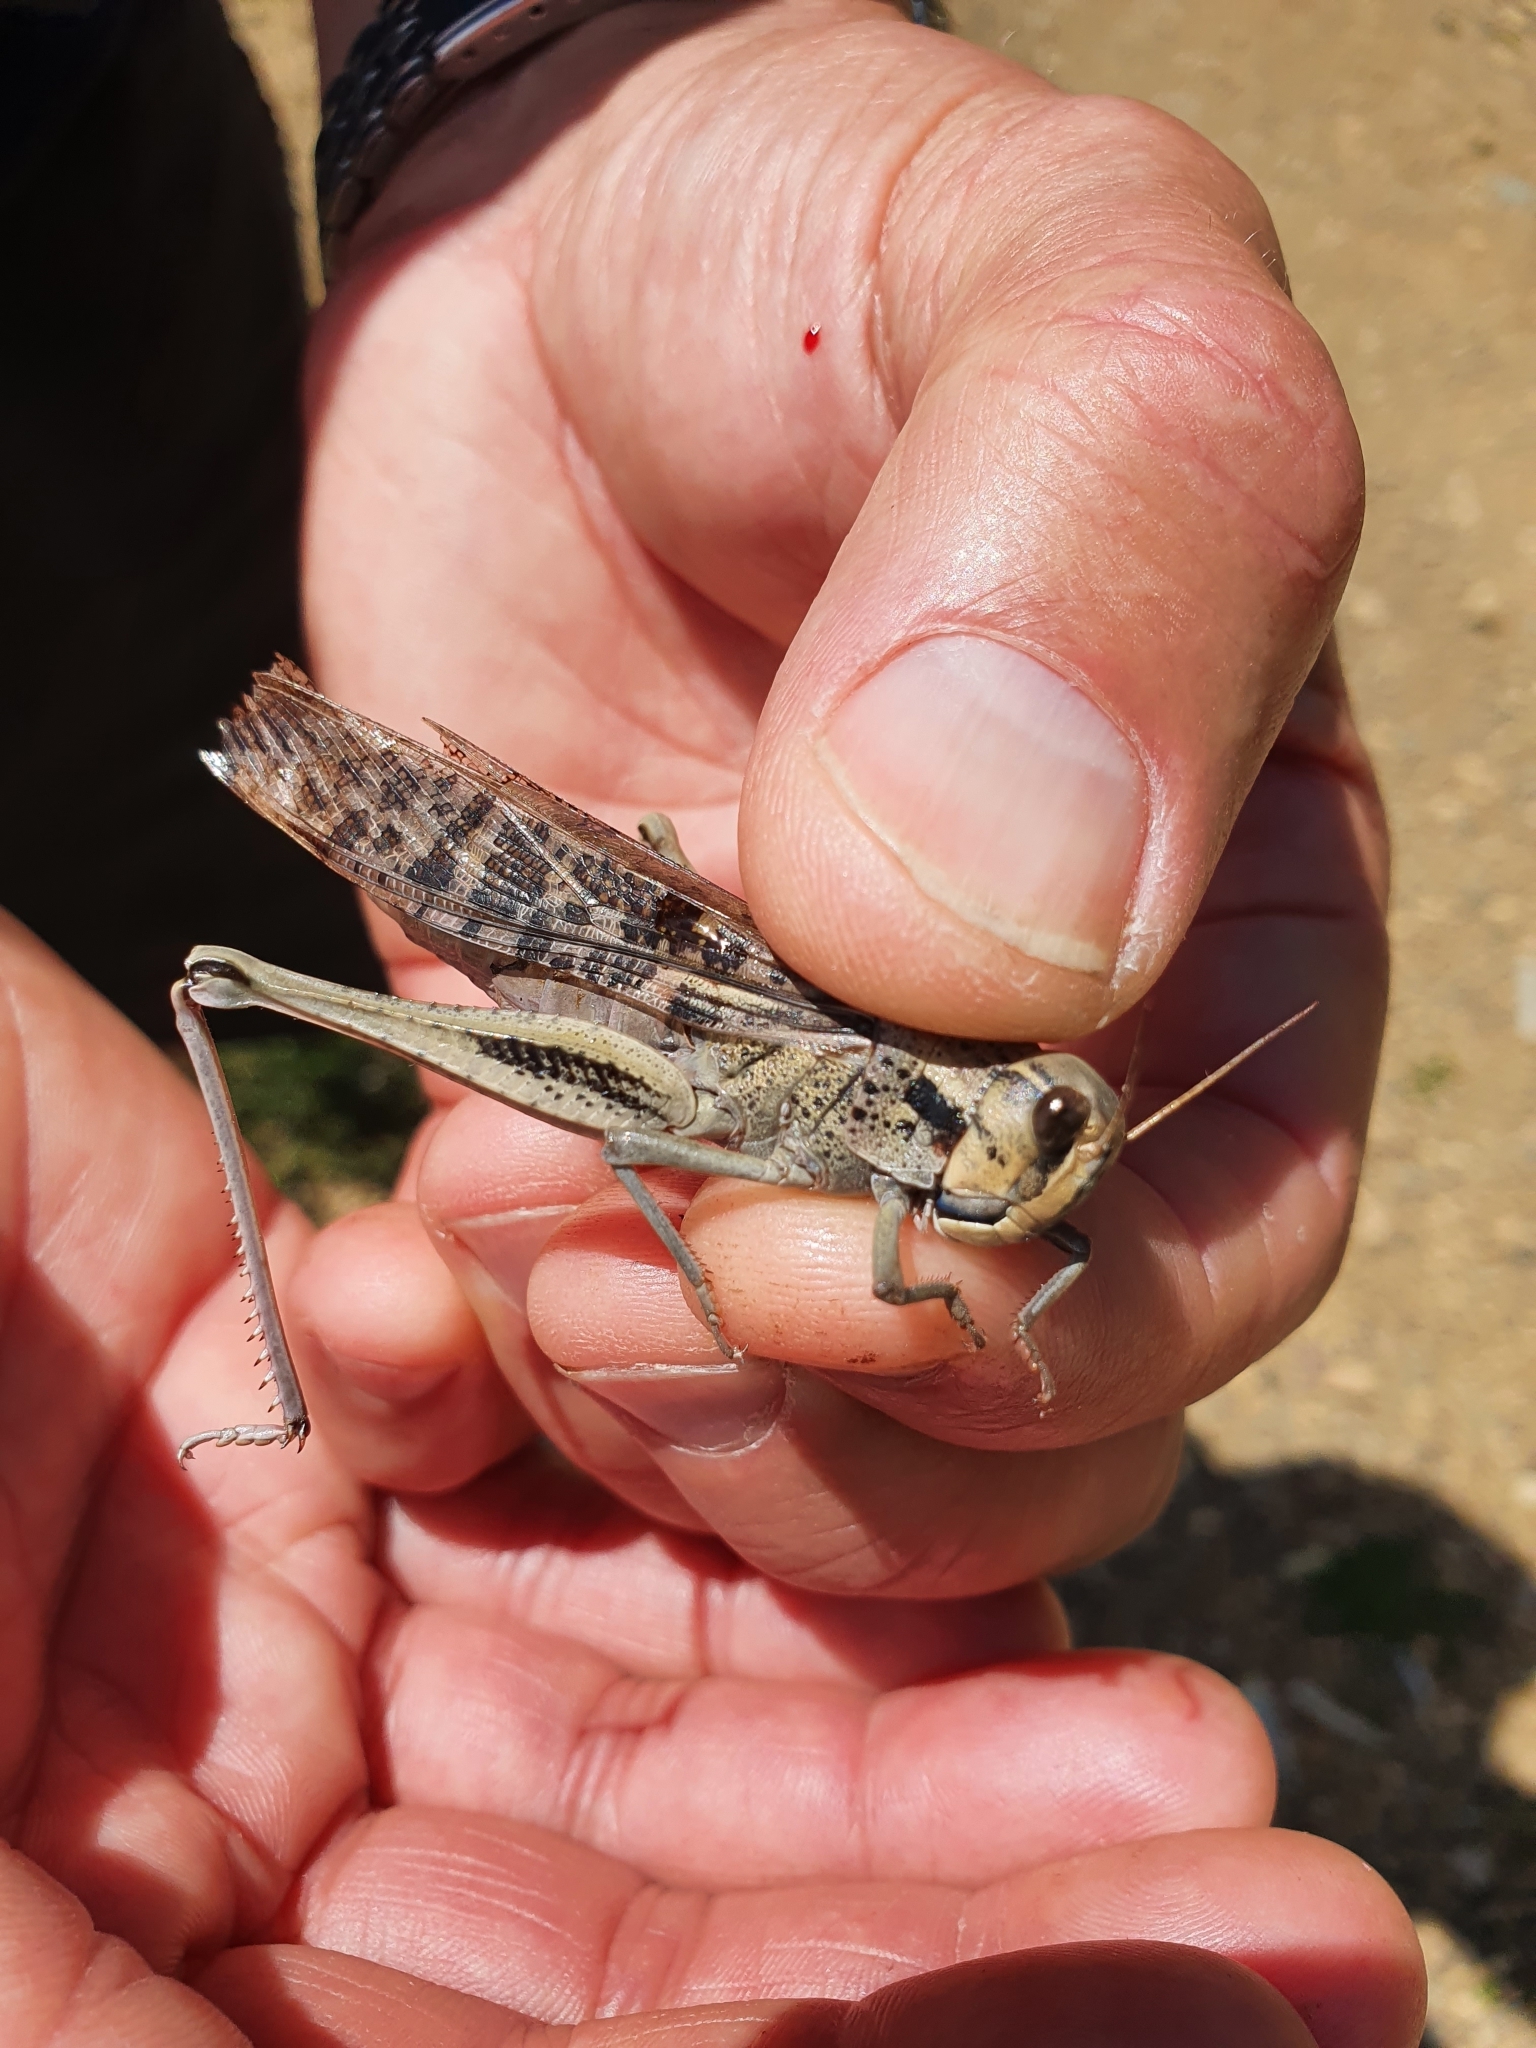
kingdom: Animalia
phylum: Arthropoda
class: Insecta
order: Orthoptera
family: Acrididae
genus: Locusta
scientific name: Locusta migratoria
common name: Migratory locust
